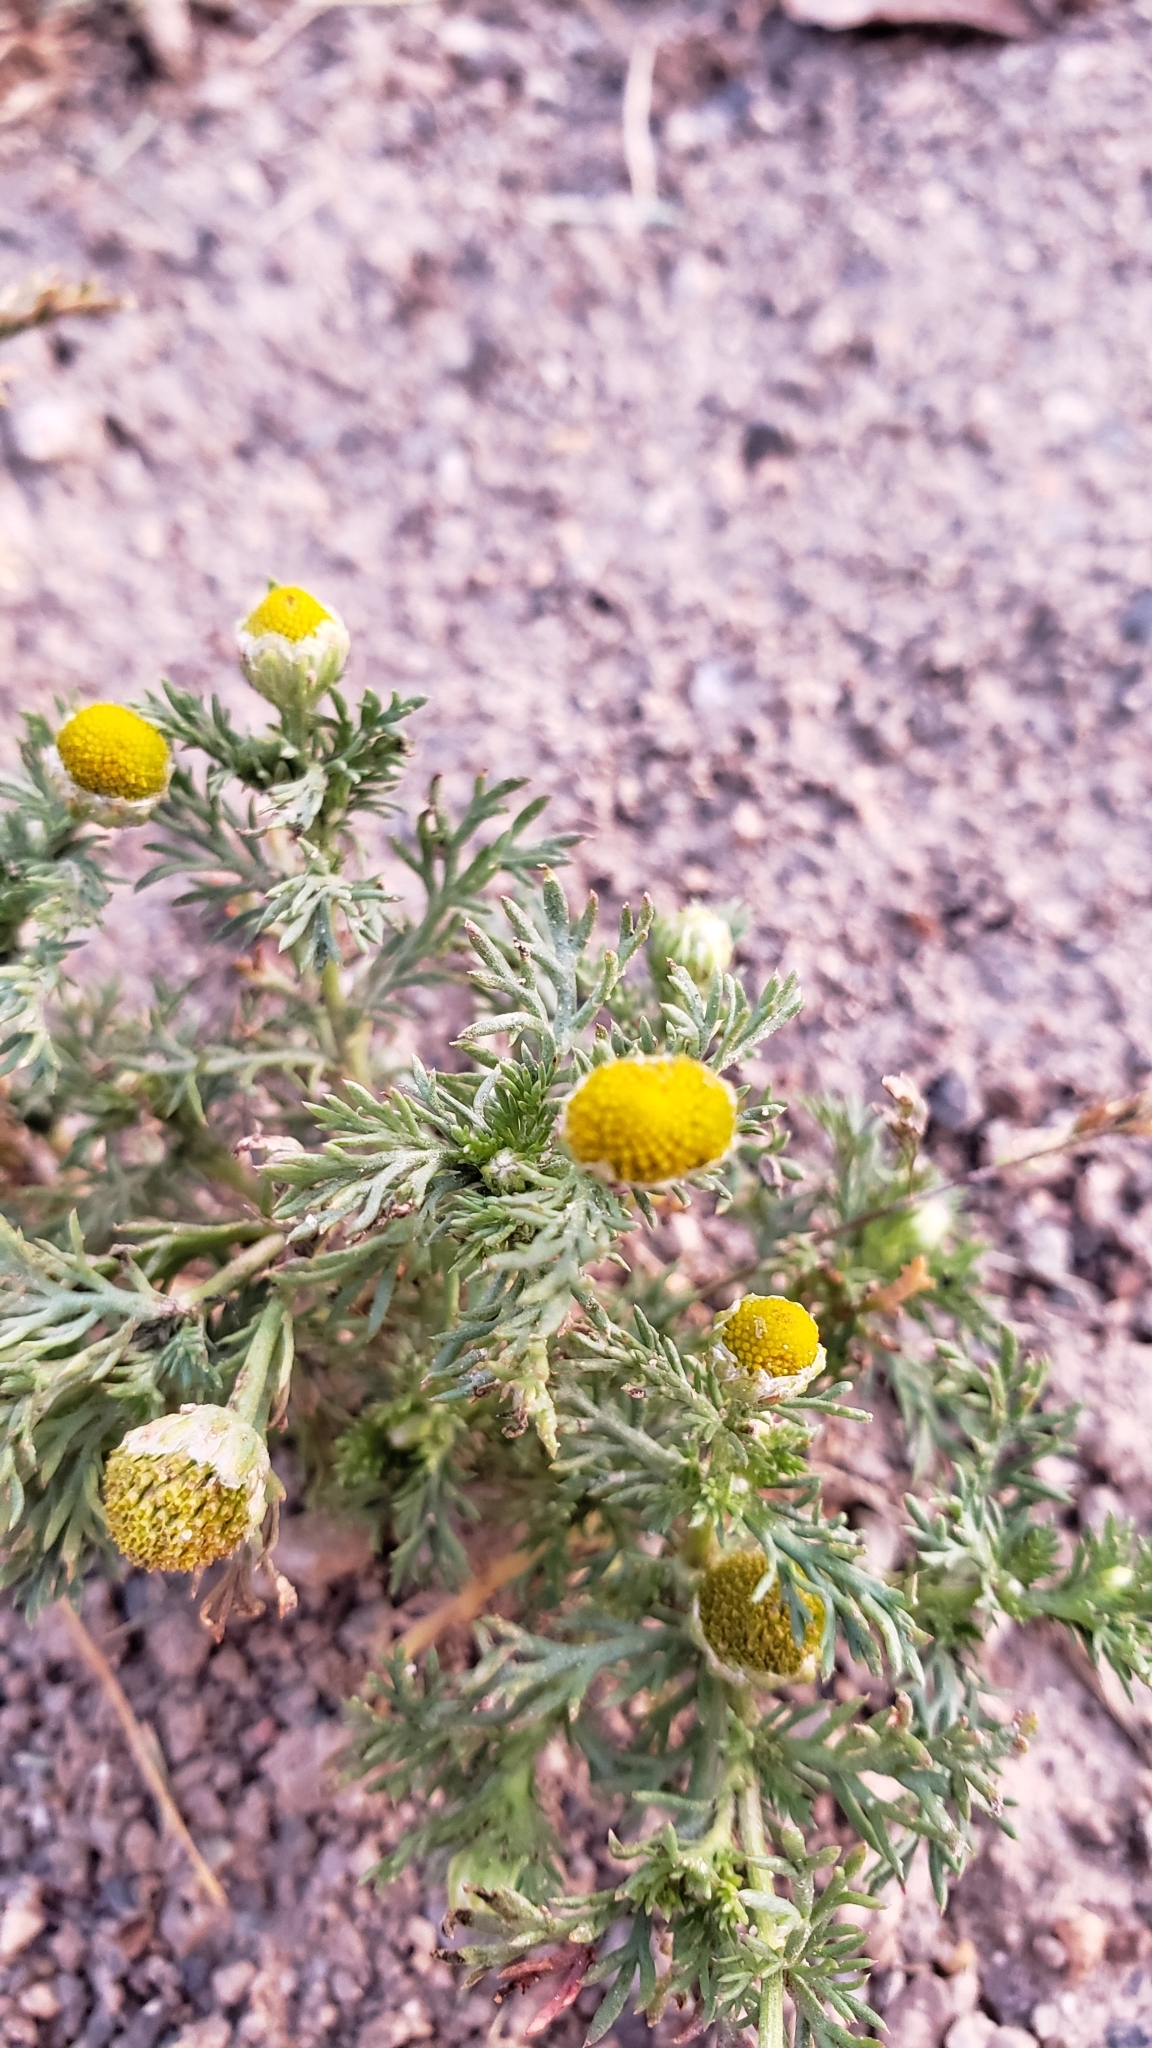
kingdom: Plantae
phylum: Tracheophyta
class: Magnoliopsida
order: Asterales
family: Asteraceae
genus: Matricaria
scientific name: Matricaria discoidea
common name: Disc mayweed
